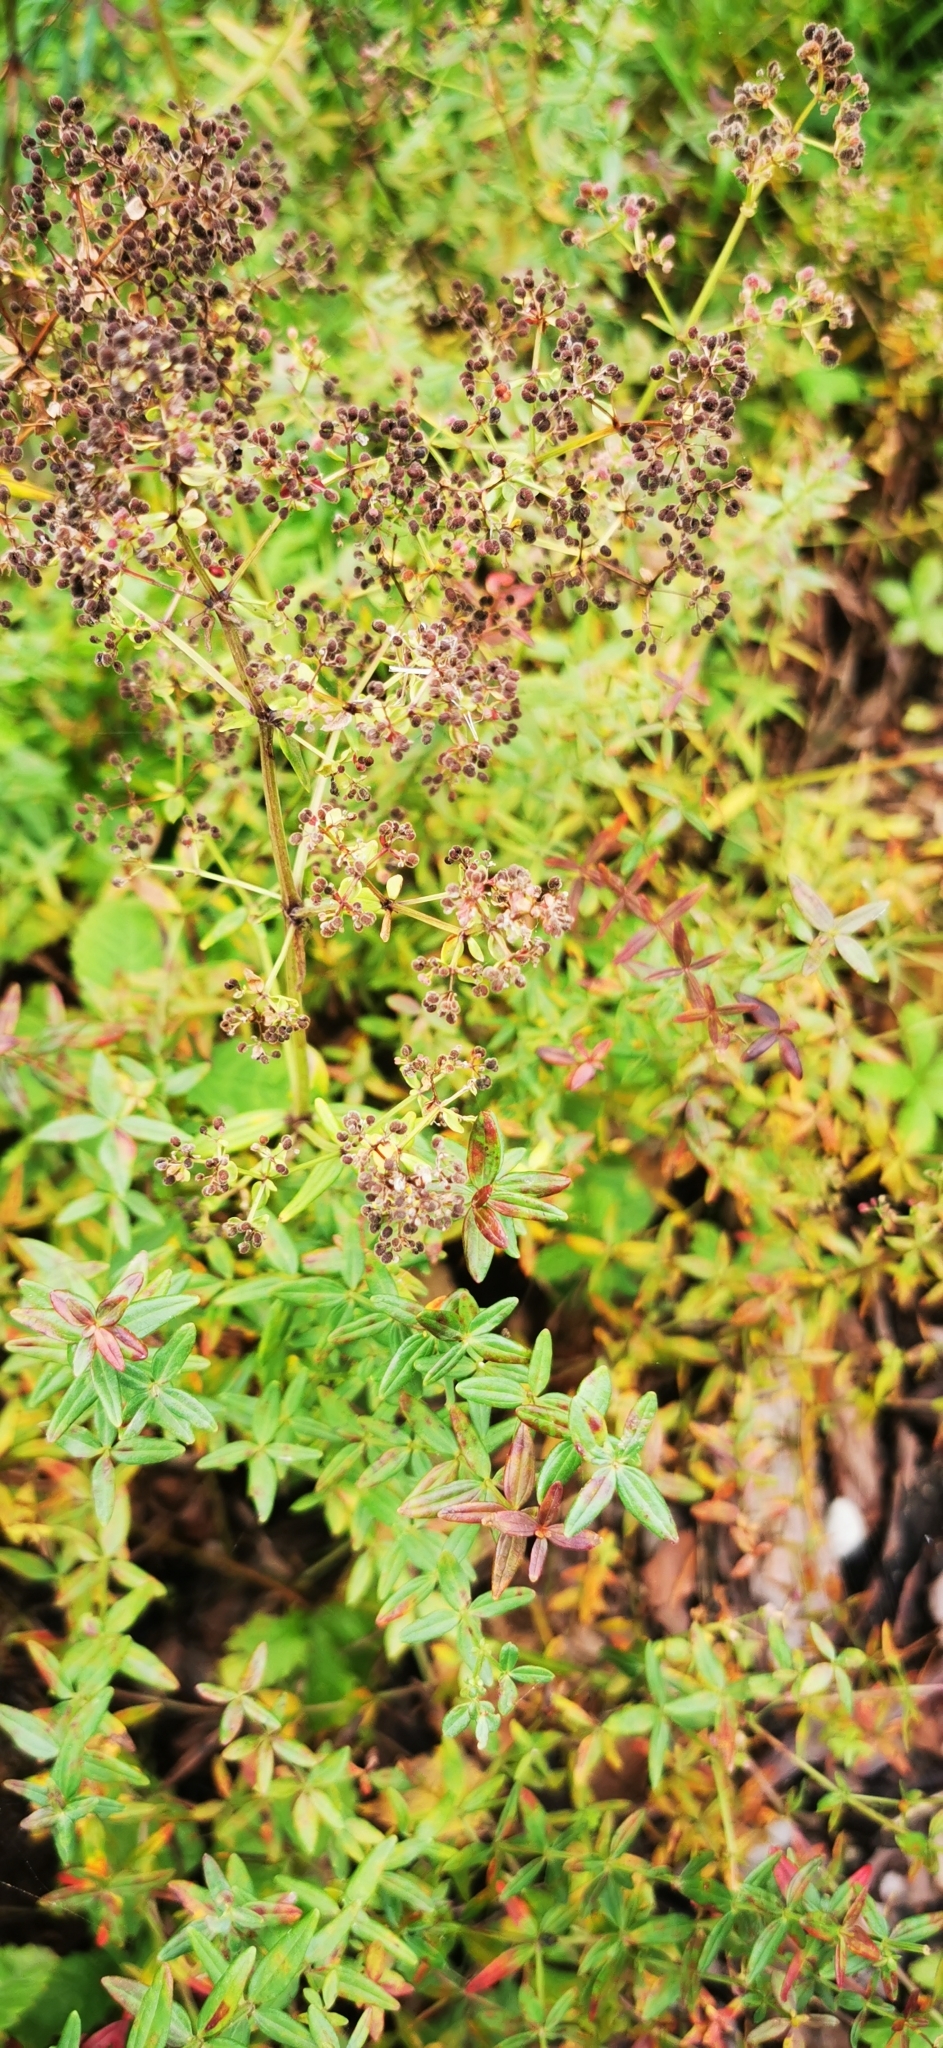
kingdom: Plantae
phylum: Tracheophyta
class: Magnoliopsida
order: Gentianales
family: Rubiaceae
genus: Galium
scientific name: Galium boreale
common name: Northern bedstraw
